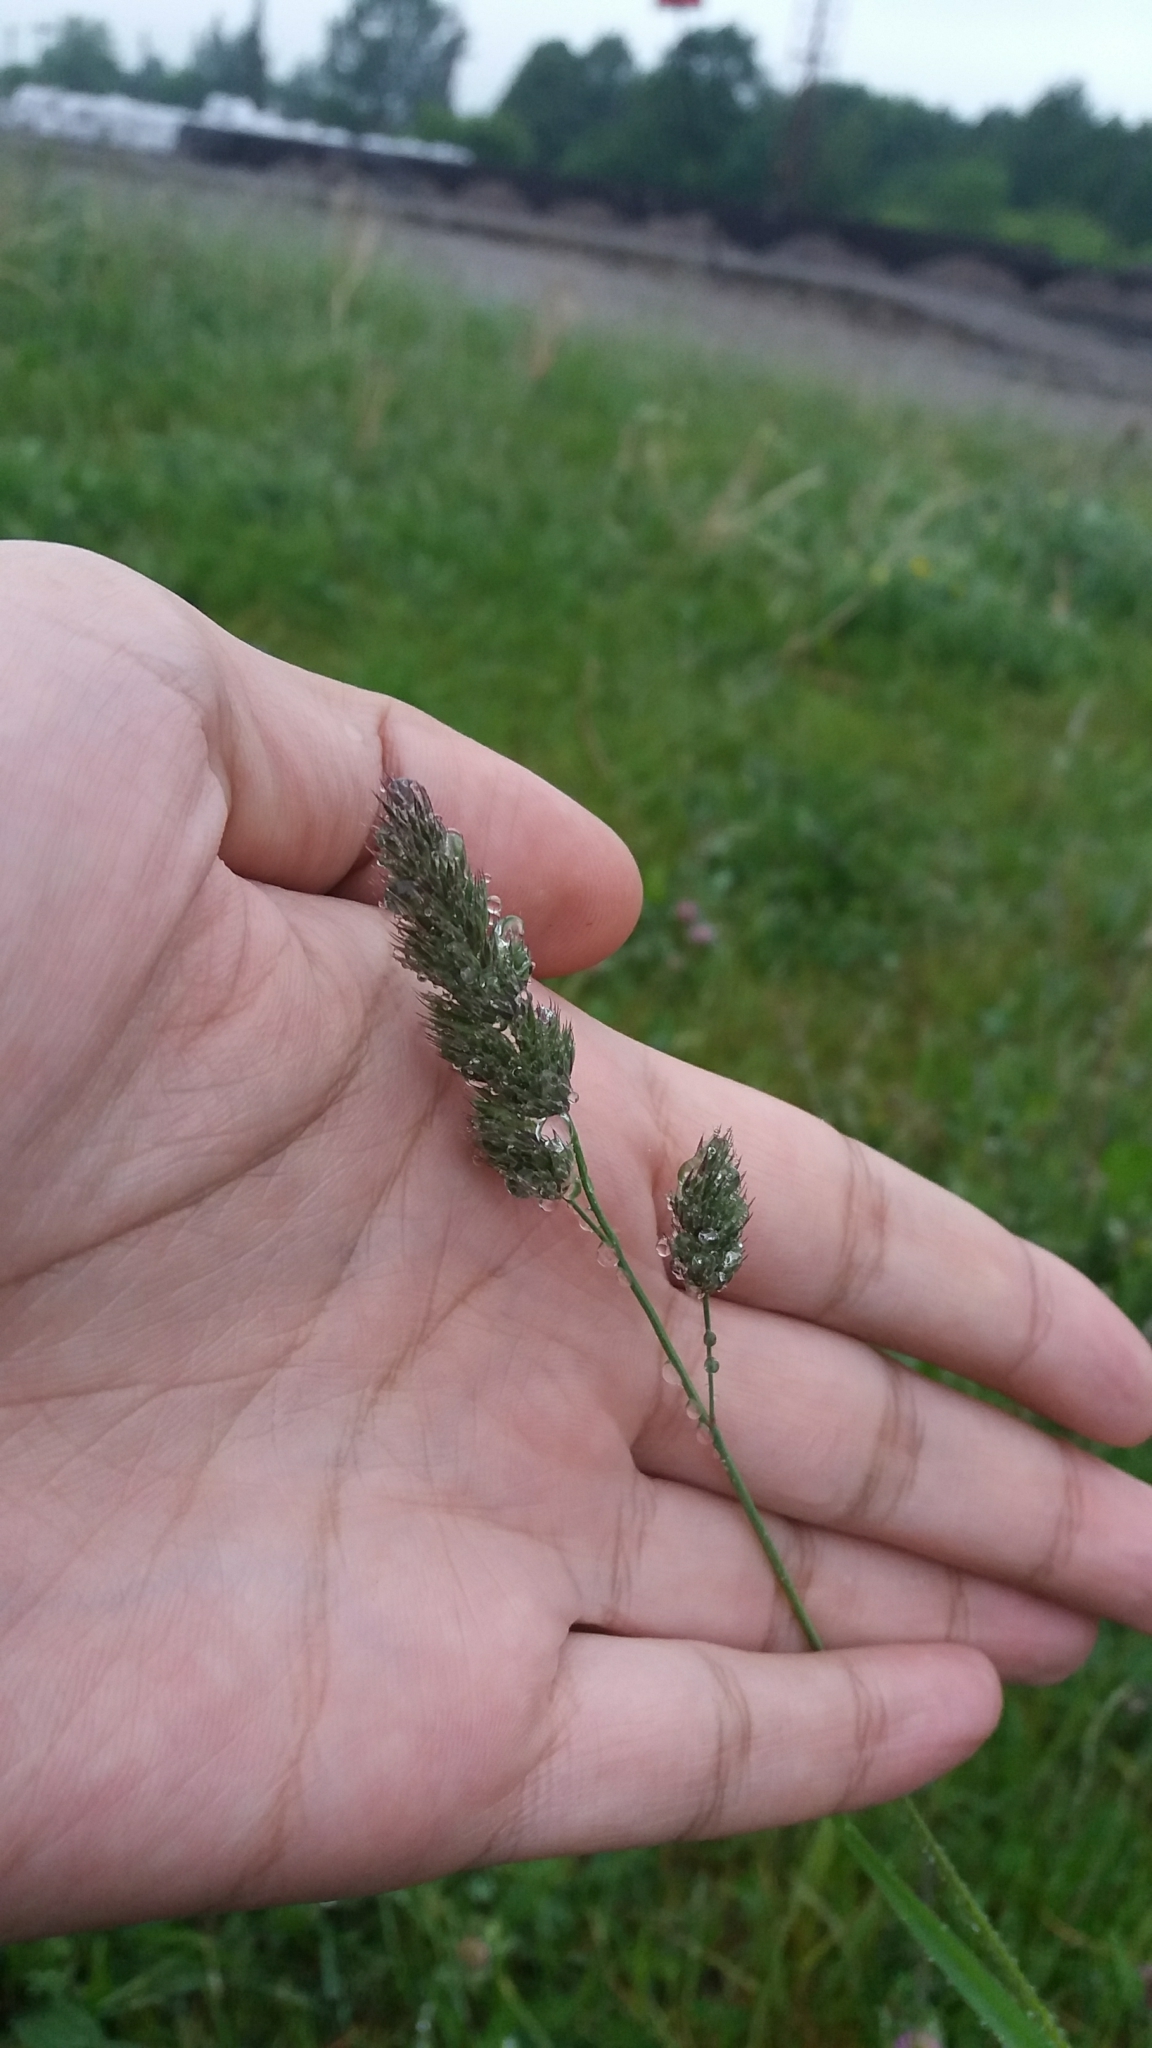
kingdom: Plantae
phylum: Tracheophyta
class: Liliopsida
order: Poales
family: Poaceae
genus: Dactylis
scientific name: Dactylis glomerata
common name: Orchardgrass
